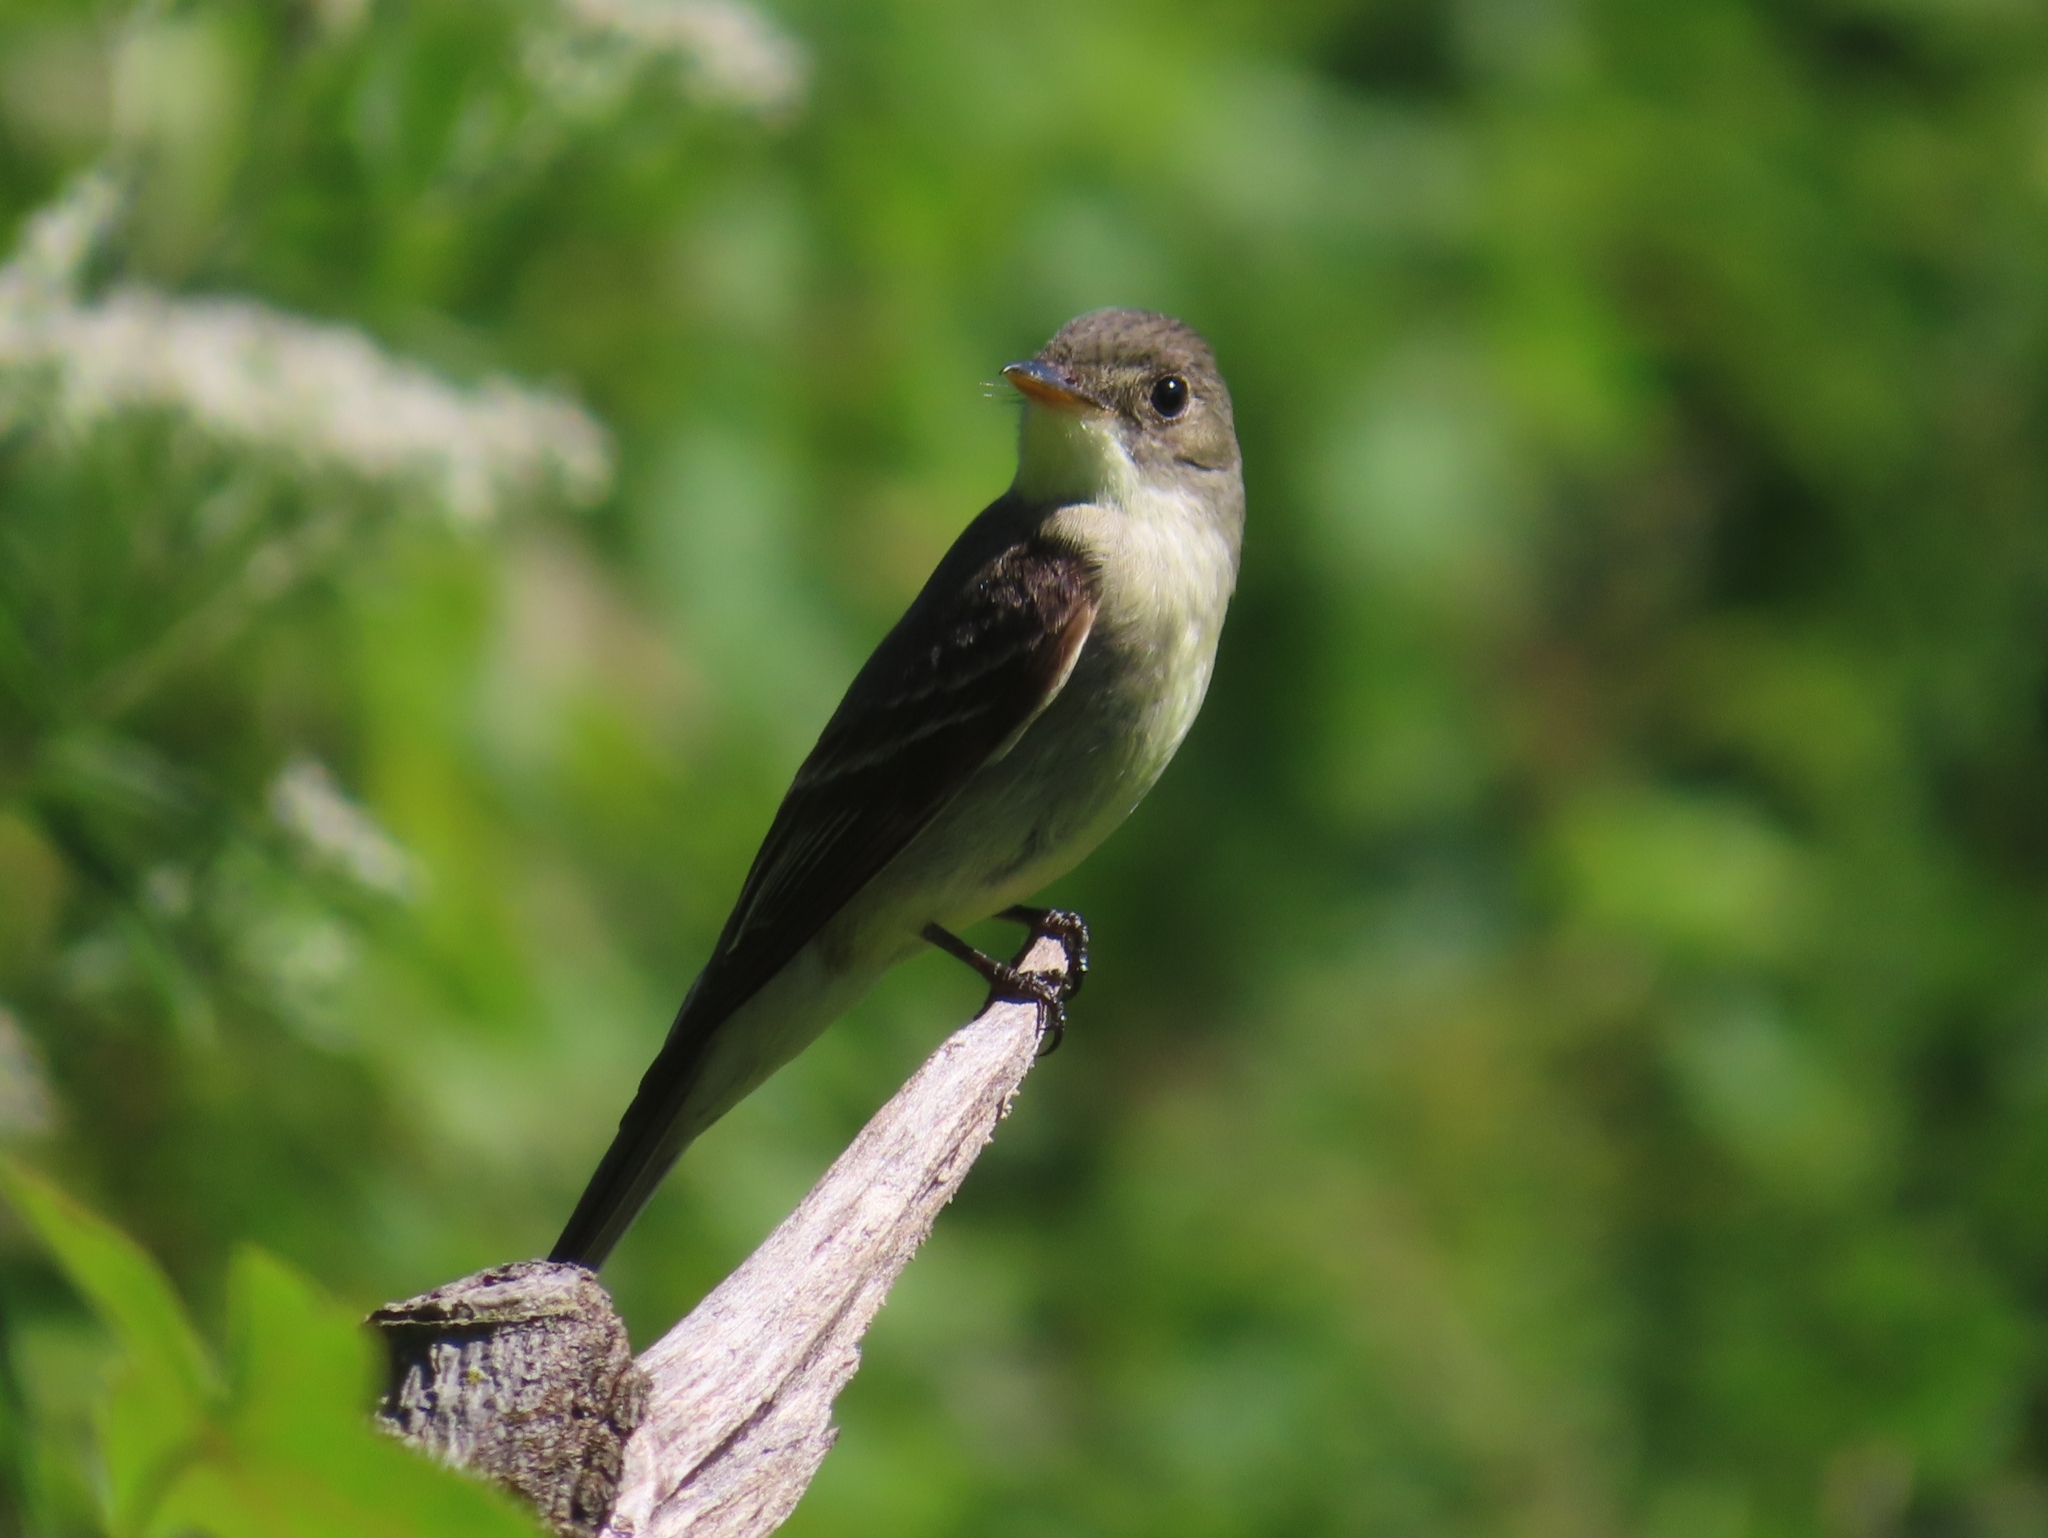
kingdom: Animalia
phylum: Chordata
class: Aves
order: Passeriformes
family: Tyrannidae
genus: Contopus
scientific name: Contopus virens
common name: Eastern wood-pewee
